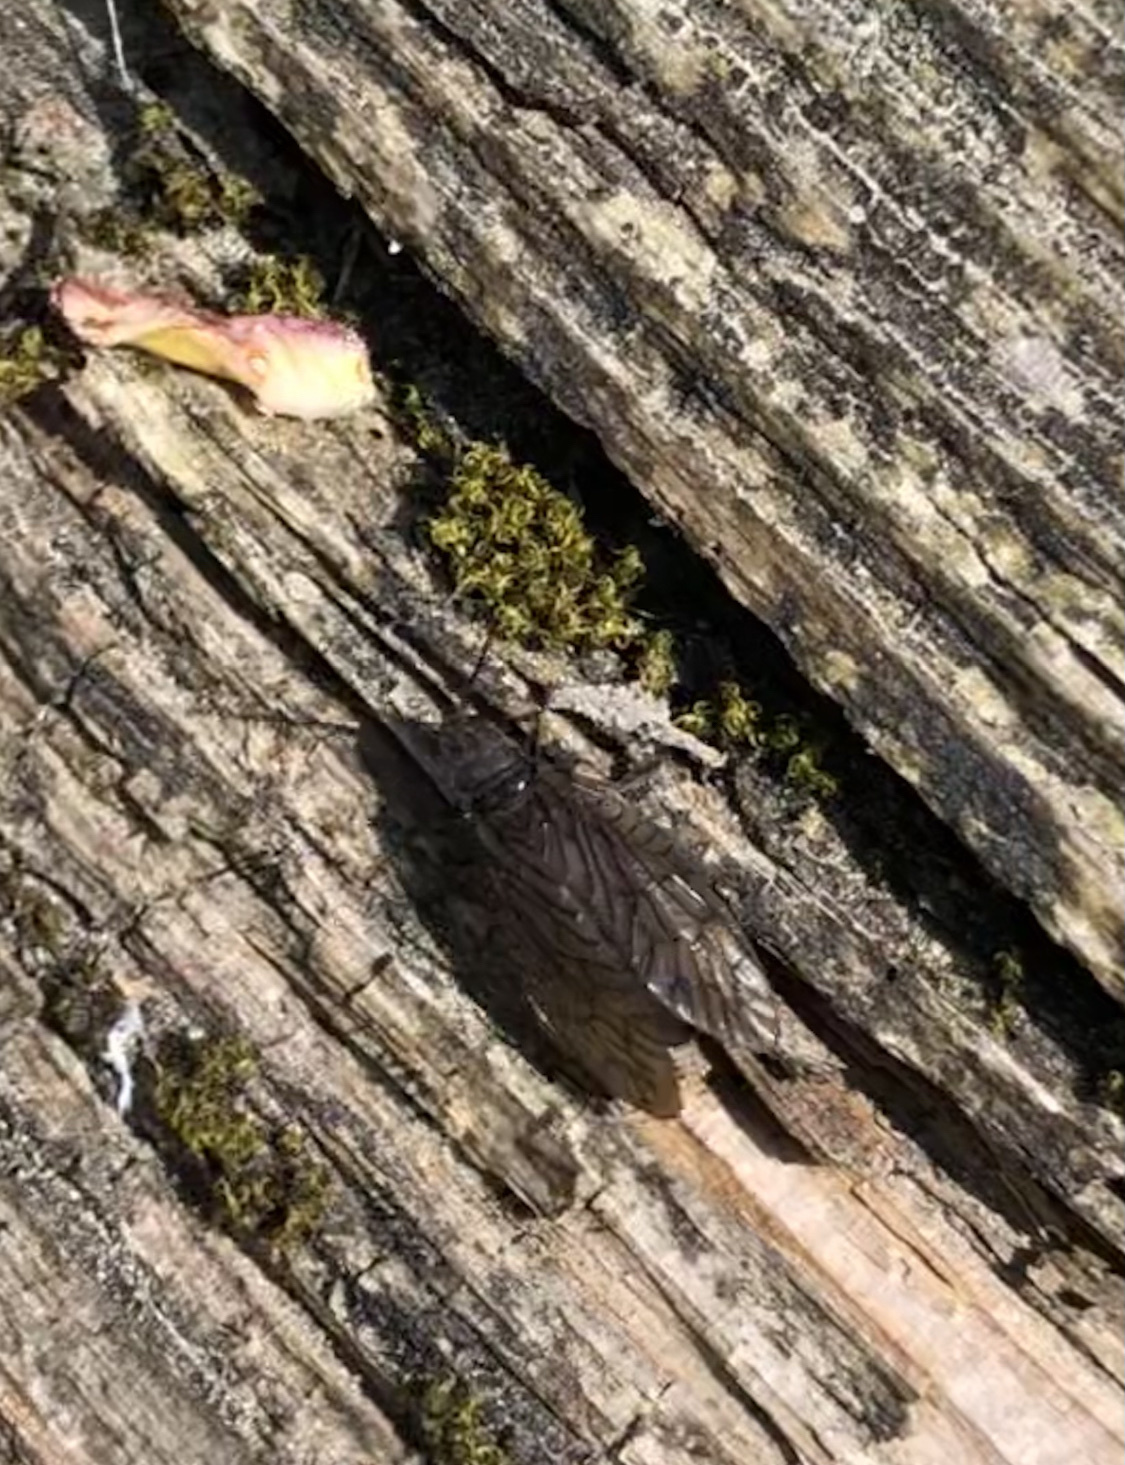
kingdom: Animalia
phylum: Arthropoda
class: Insecta
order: Megaloptera
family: Sialidae
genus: Sialis
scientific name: Sialis
